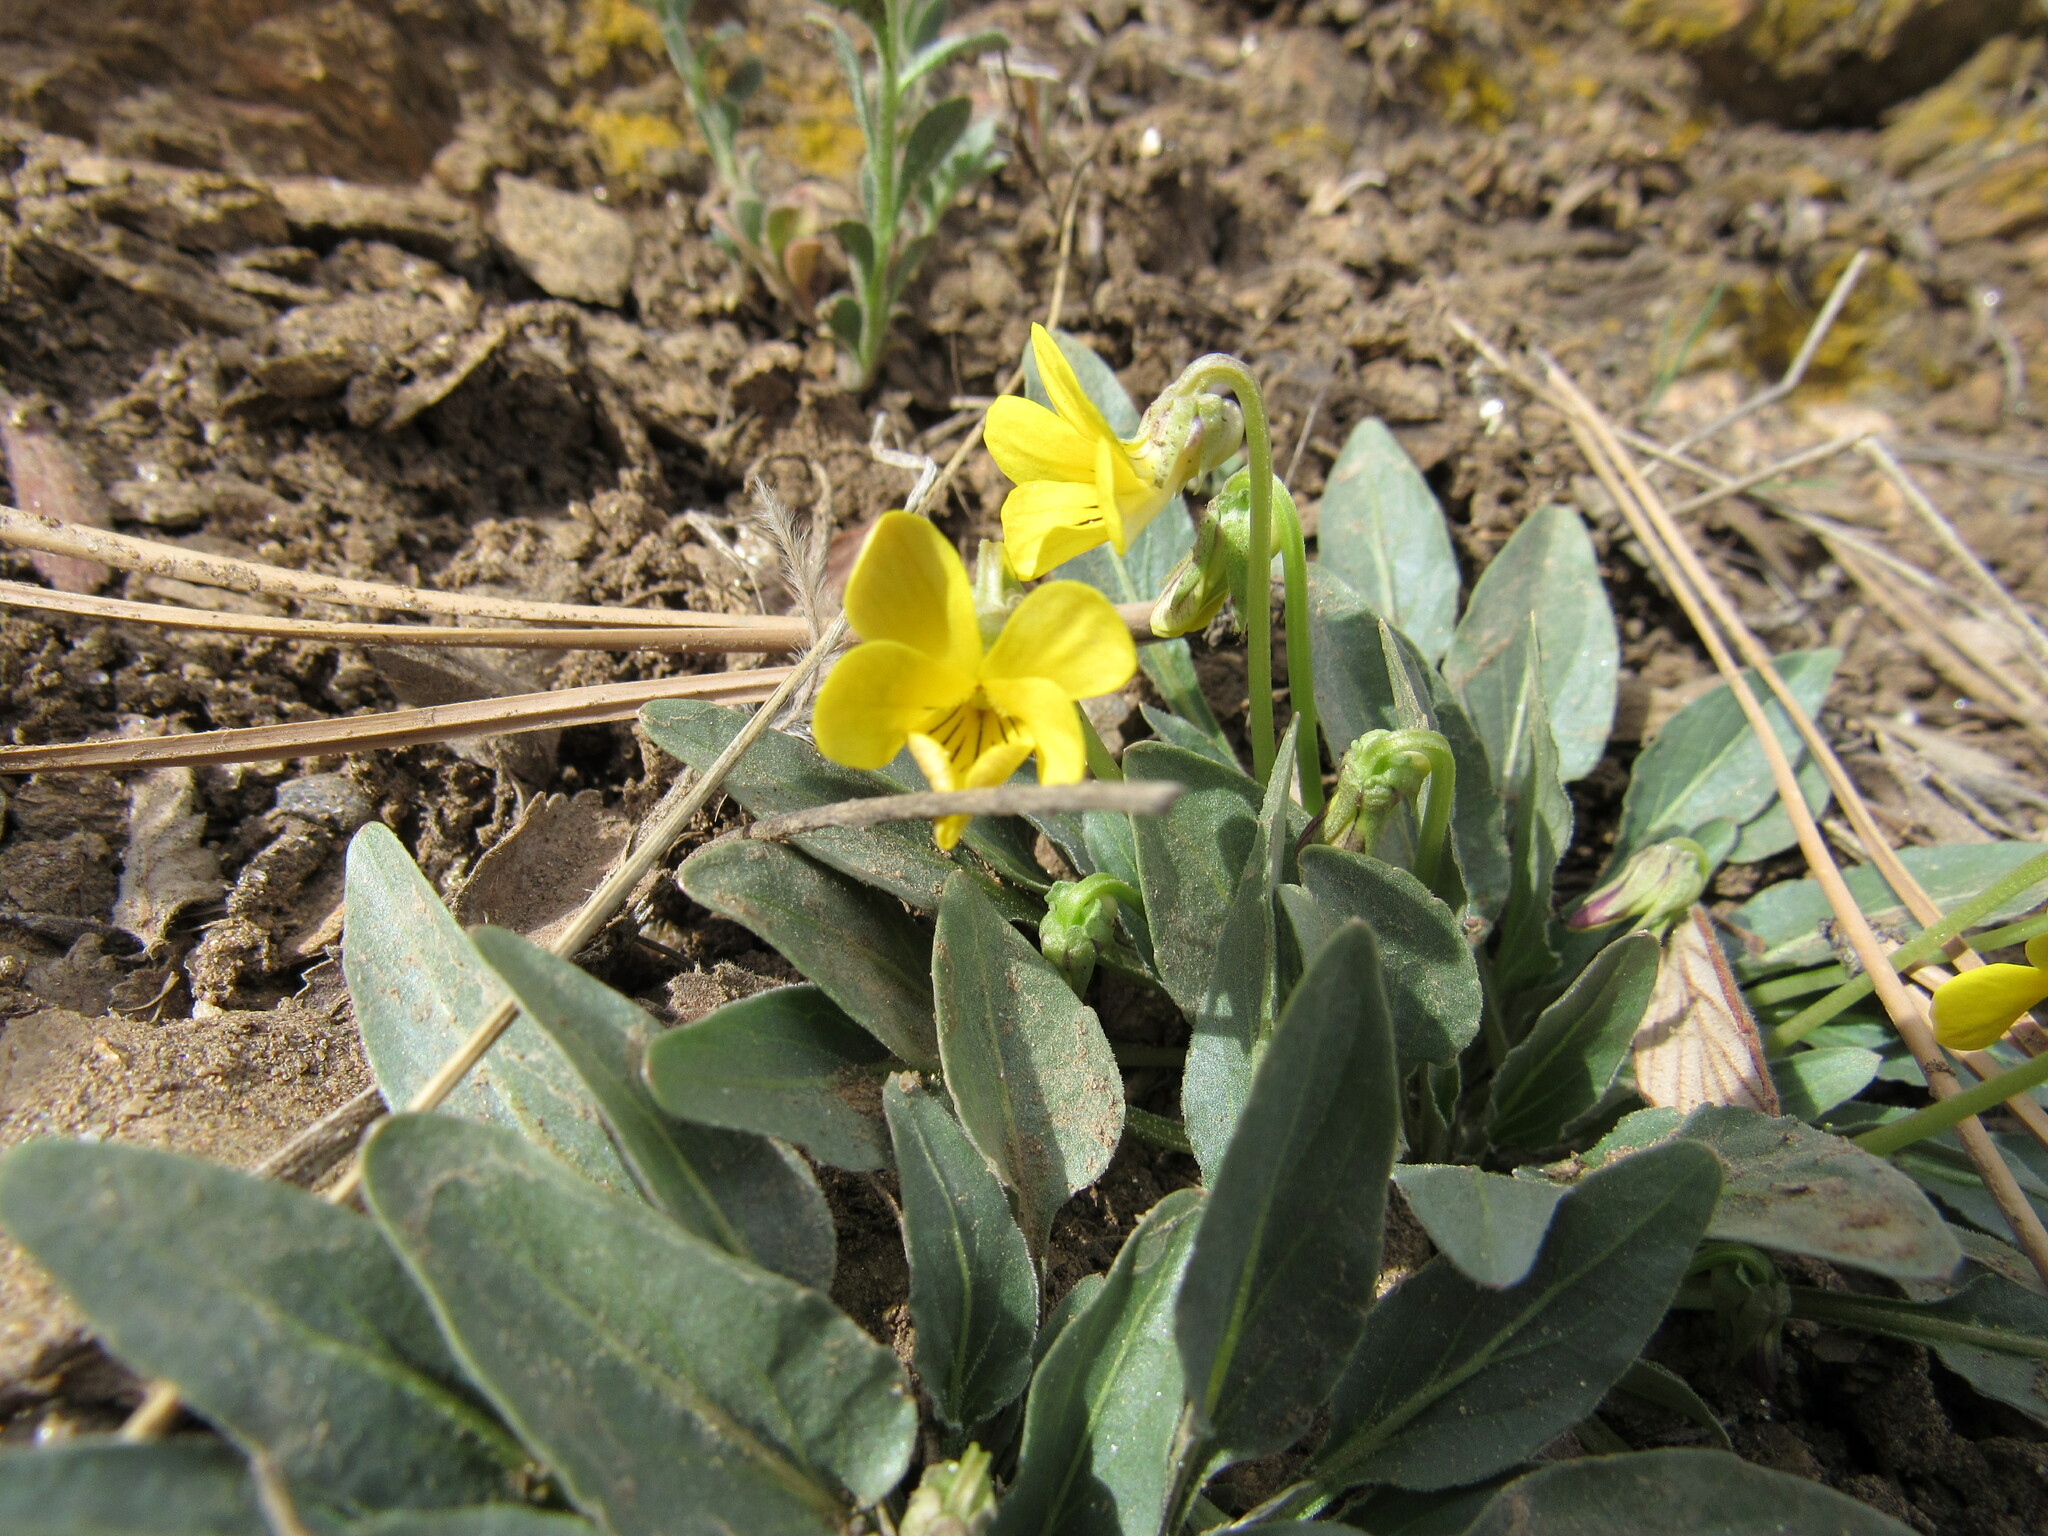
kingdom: Plantae
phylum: Tracheophyta
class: Magnoliopsida
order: Malpighiales
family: Violaceae
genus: Viola
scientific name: Viola nuttallii
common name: Yellow prairie violet
